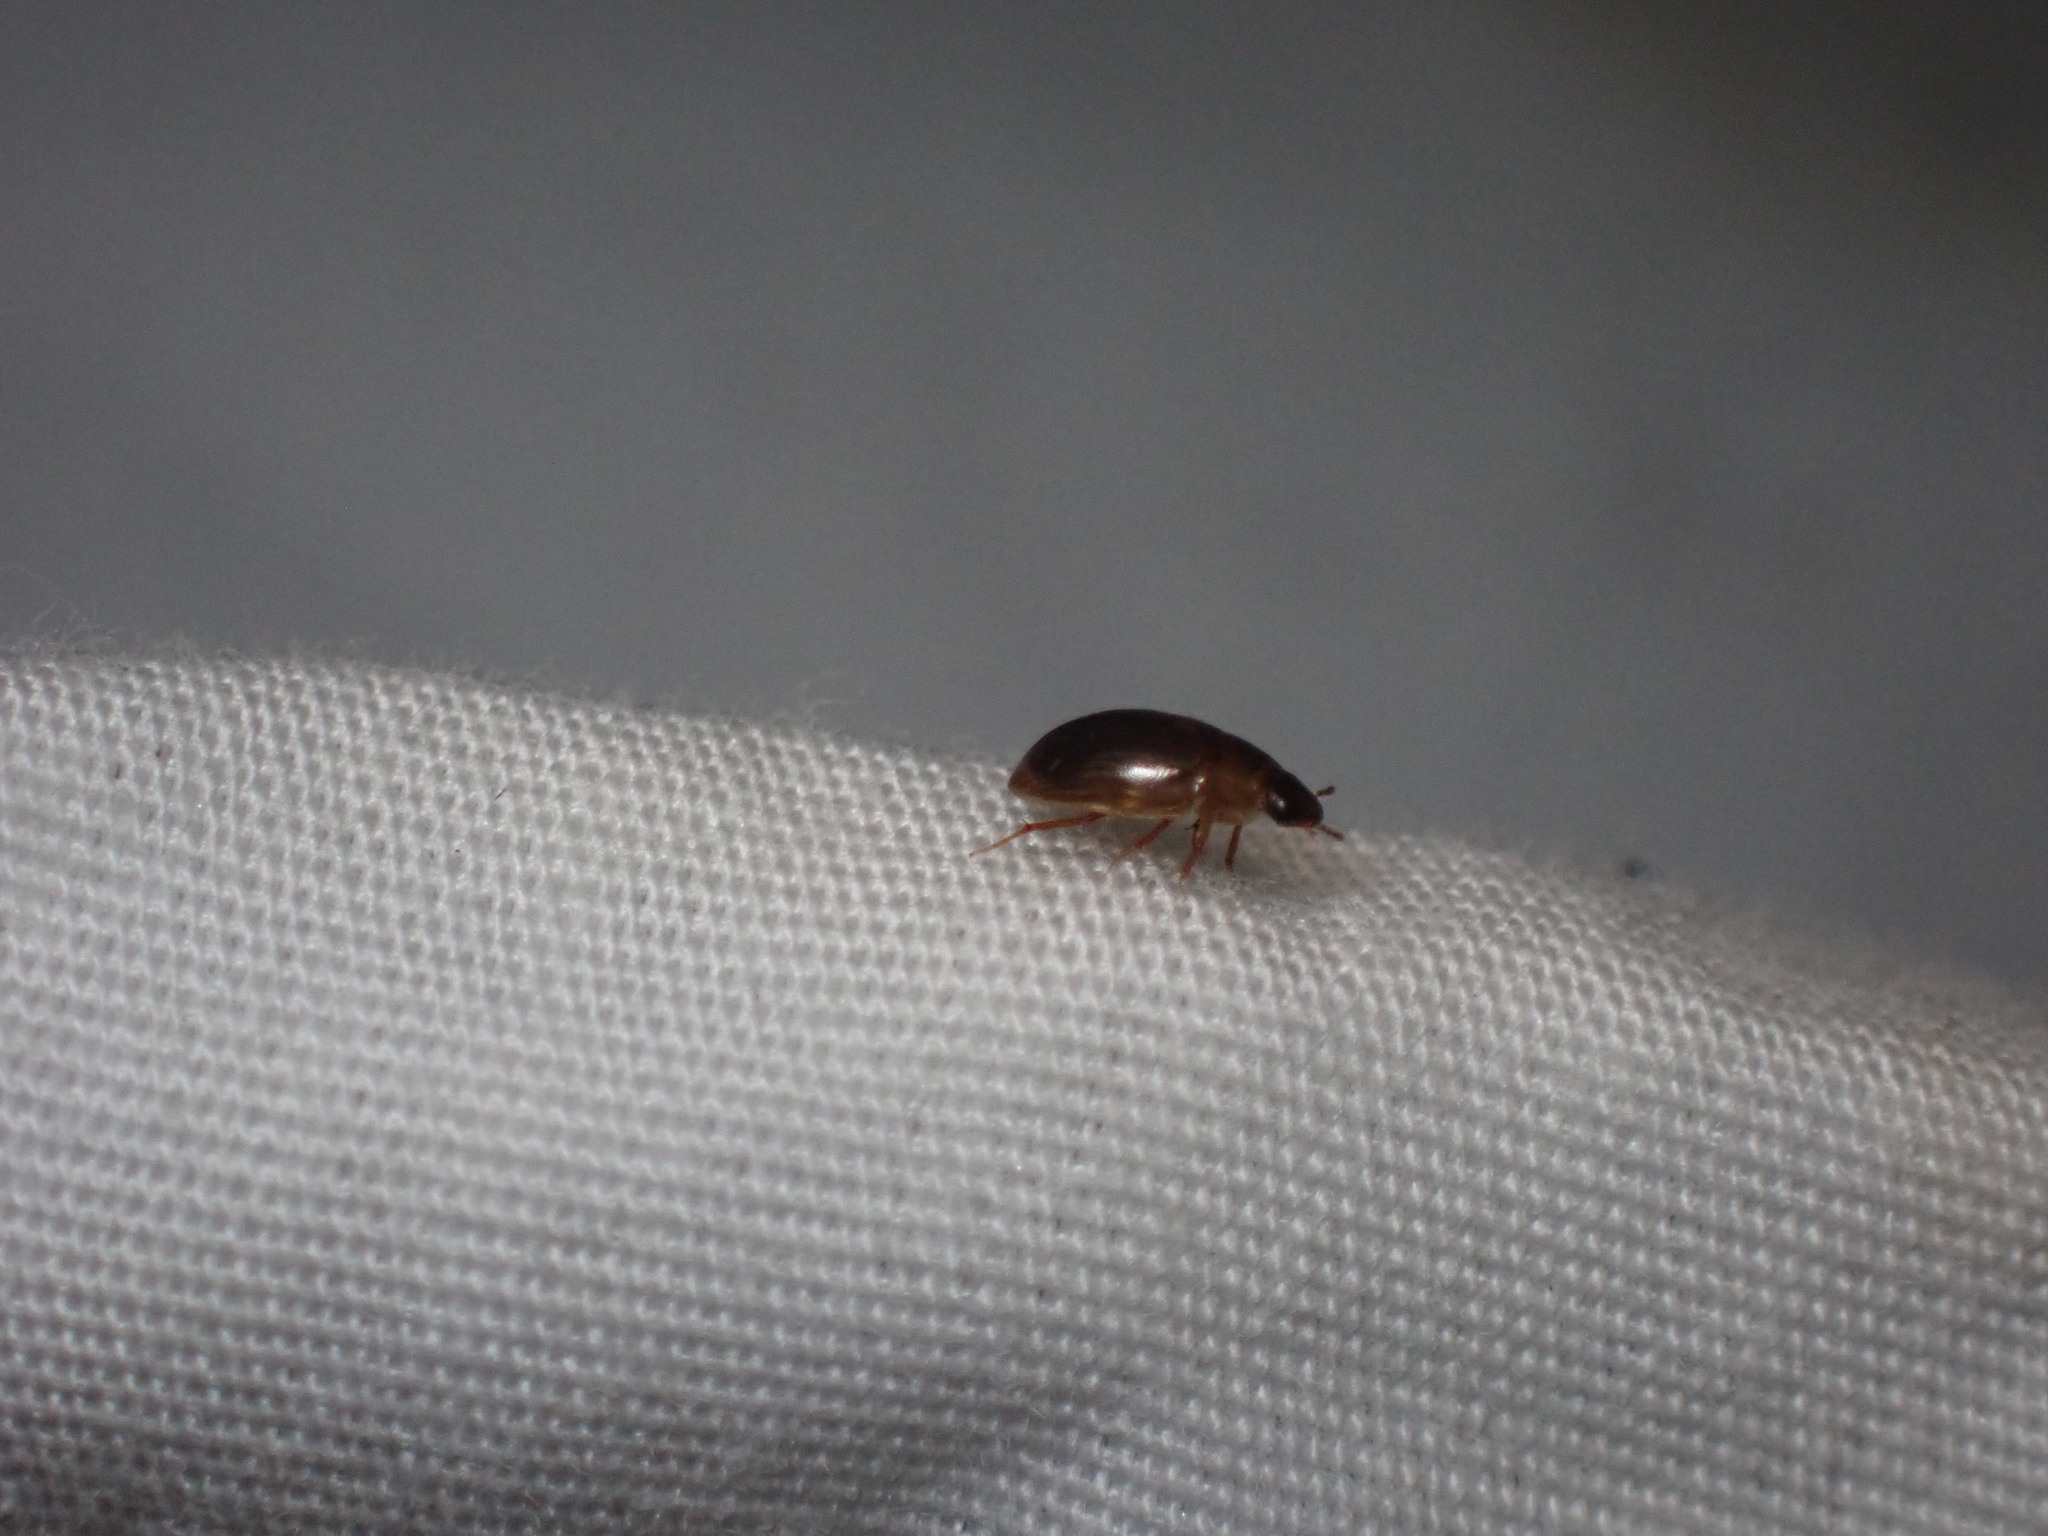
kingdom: Animalia
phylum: Arthropoda
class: Insecta
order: Coleoptera
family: Hydrophilidae
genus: Enochrus
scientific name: Enochrus
